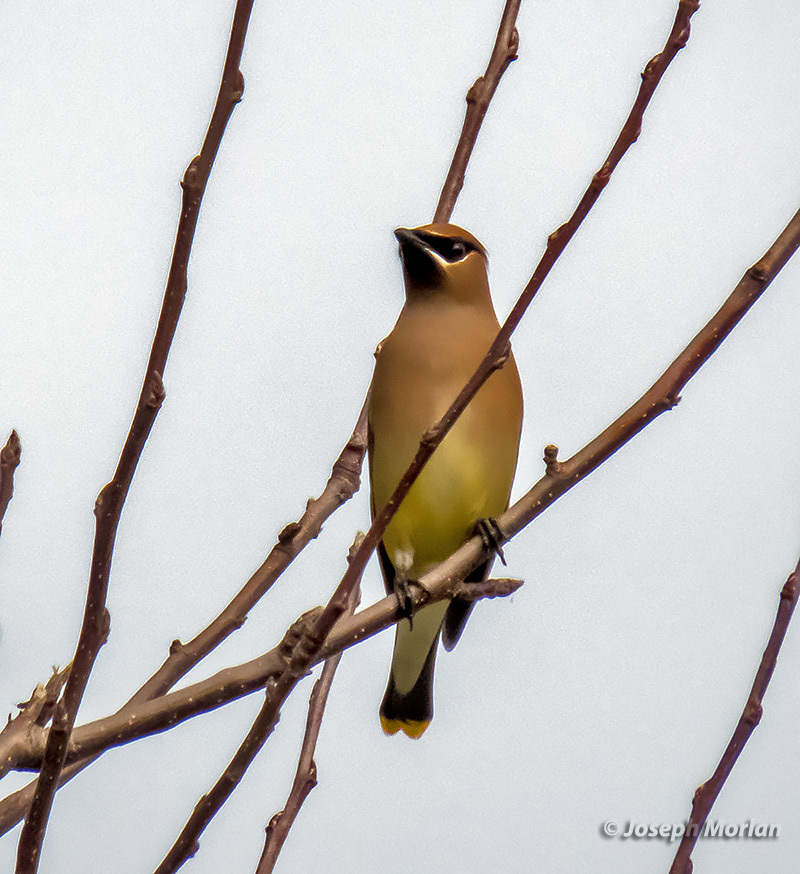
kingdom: Animalia
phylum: Chordata
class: Aves
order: Passeriformes
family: Bombycillidae
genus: Bombycilla
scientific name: Bombycilla cedrorum
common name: Cedar waxwing
